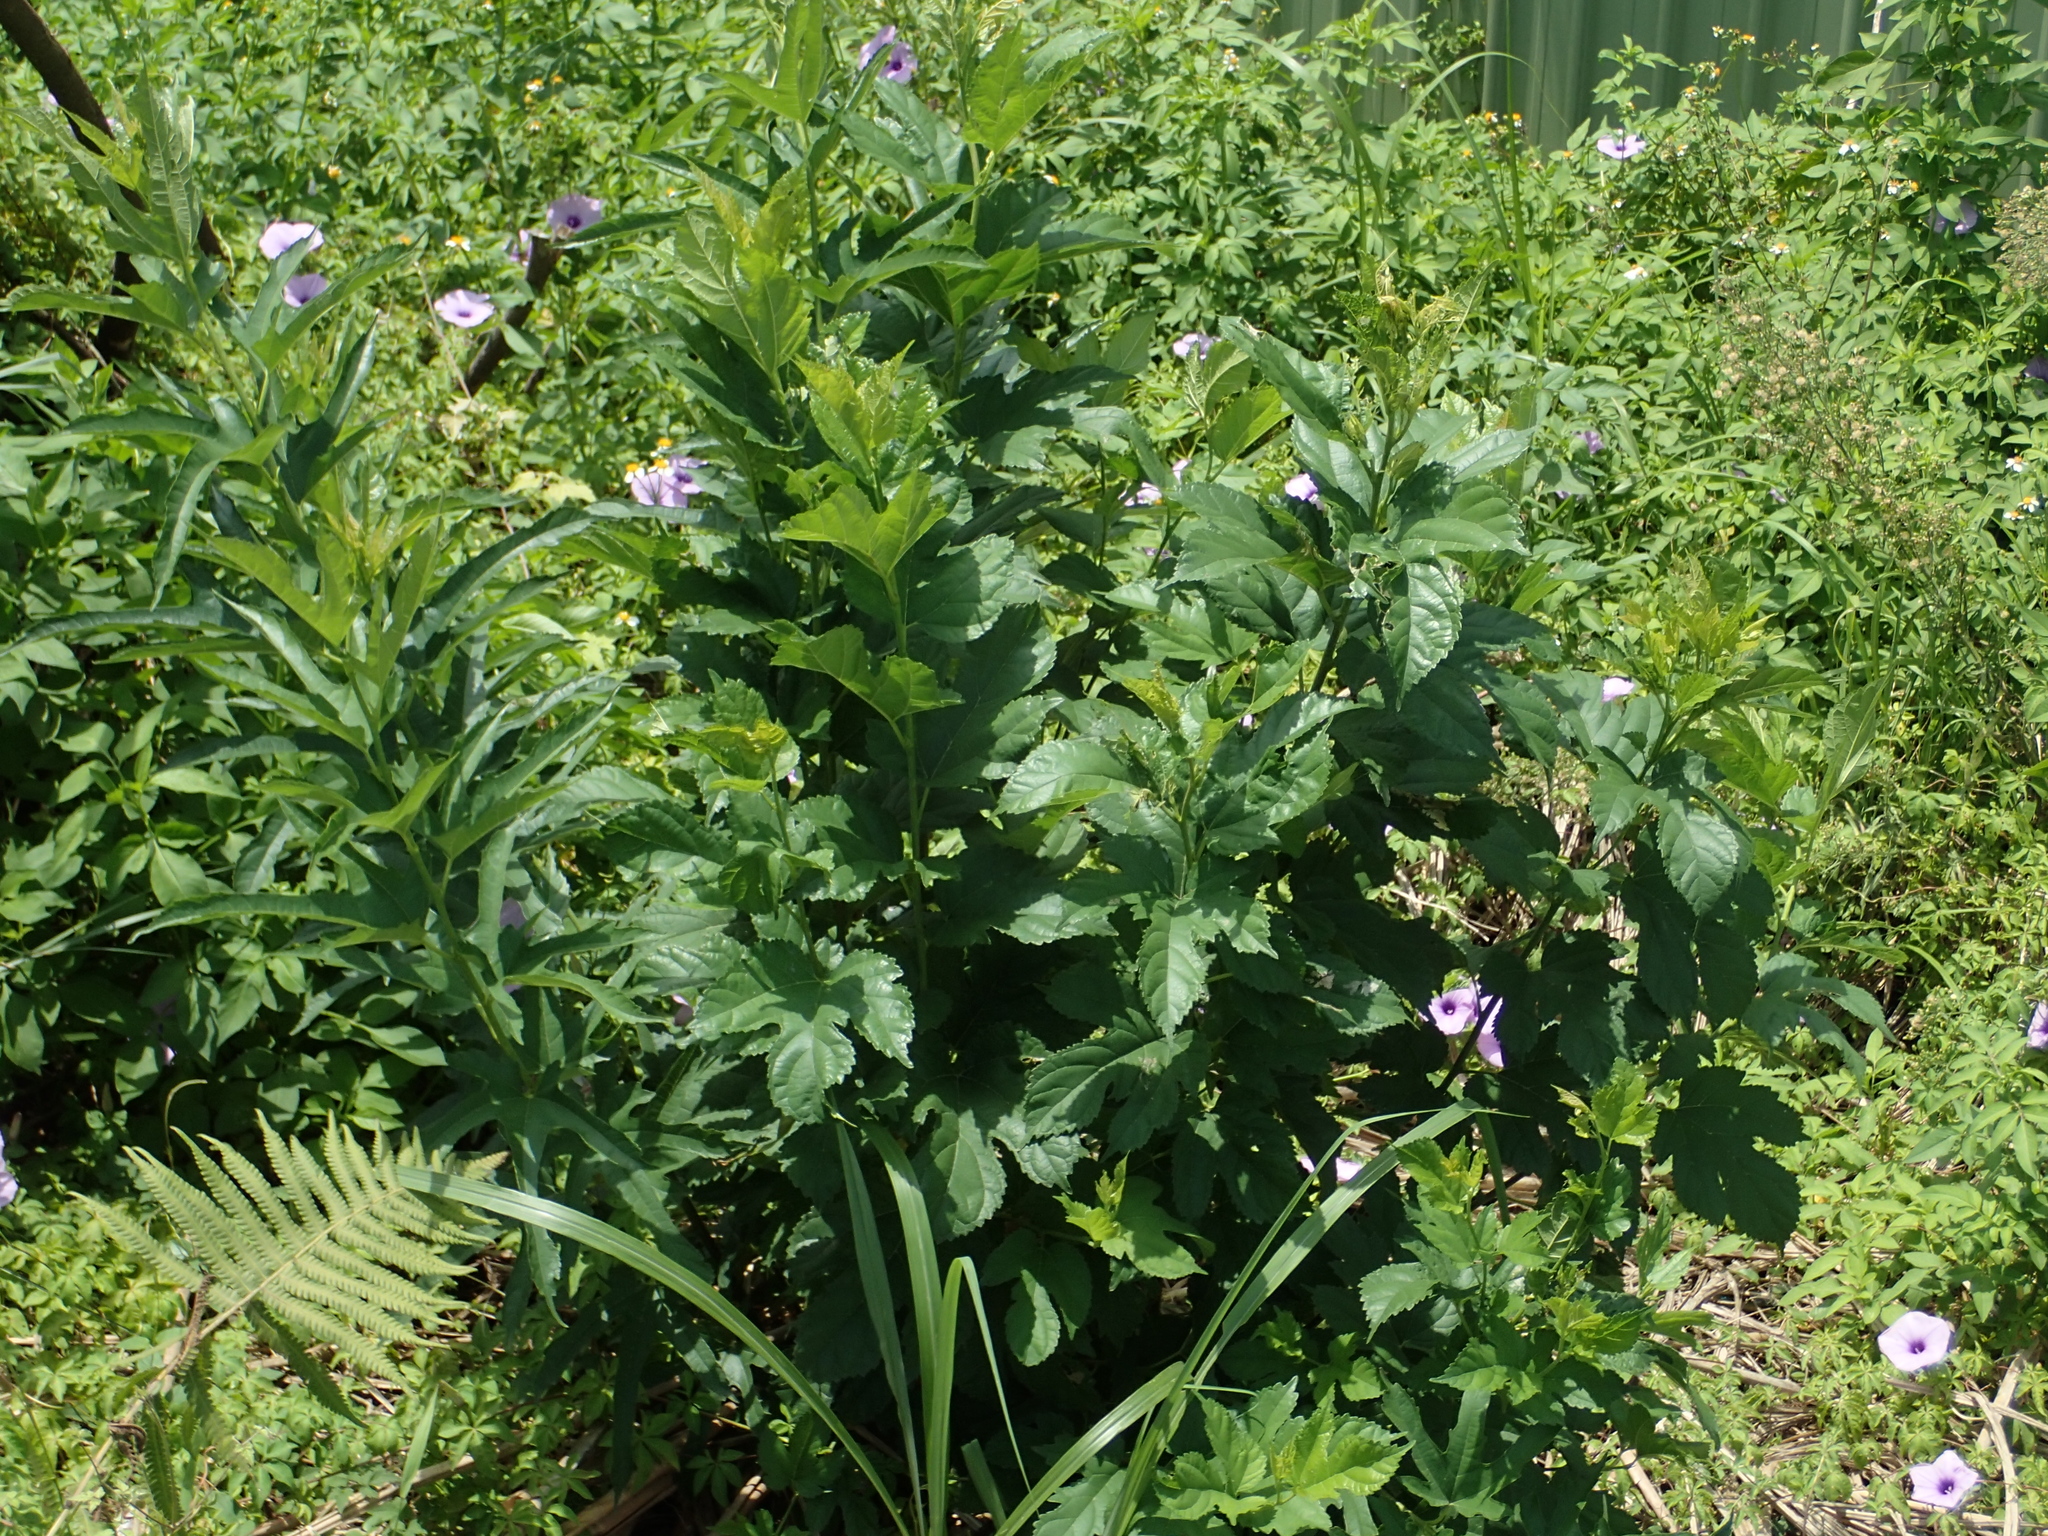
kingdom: Plantae
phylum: Tracheophyta
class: Magnoliopsida
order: Rosales
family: Moraceae
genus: Morus
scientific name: Morus indica
